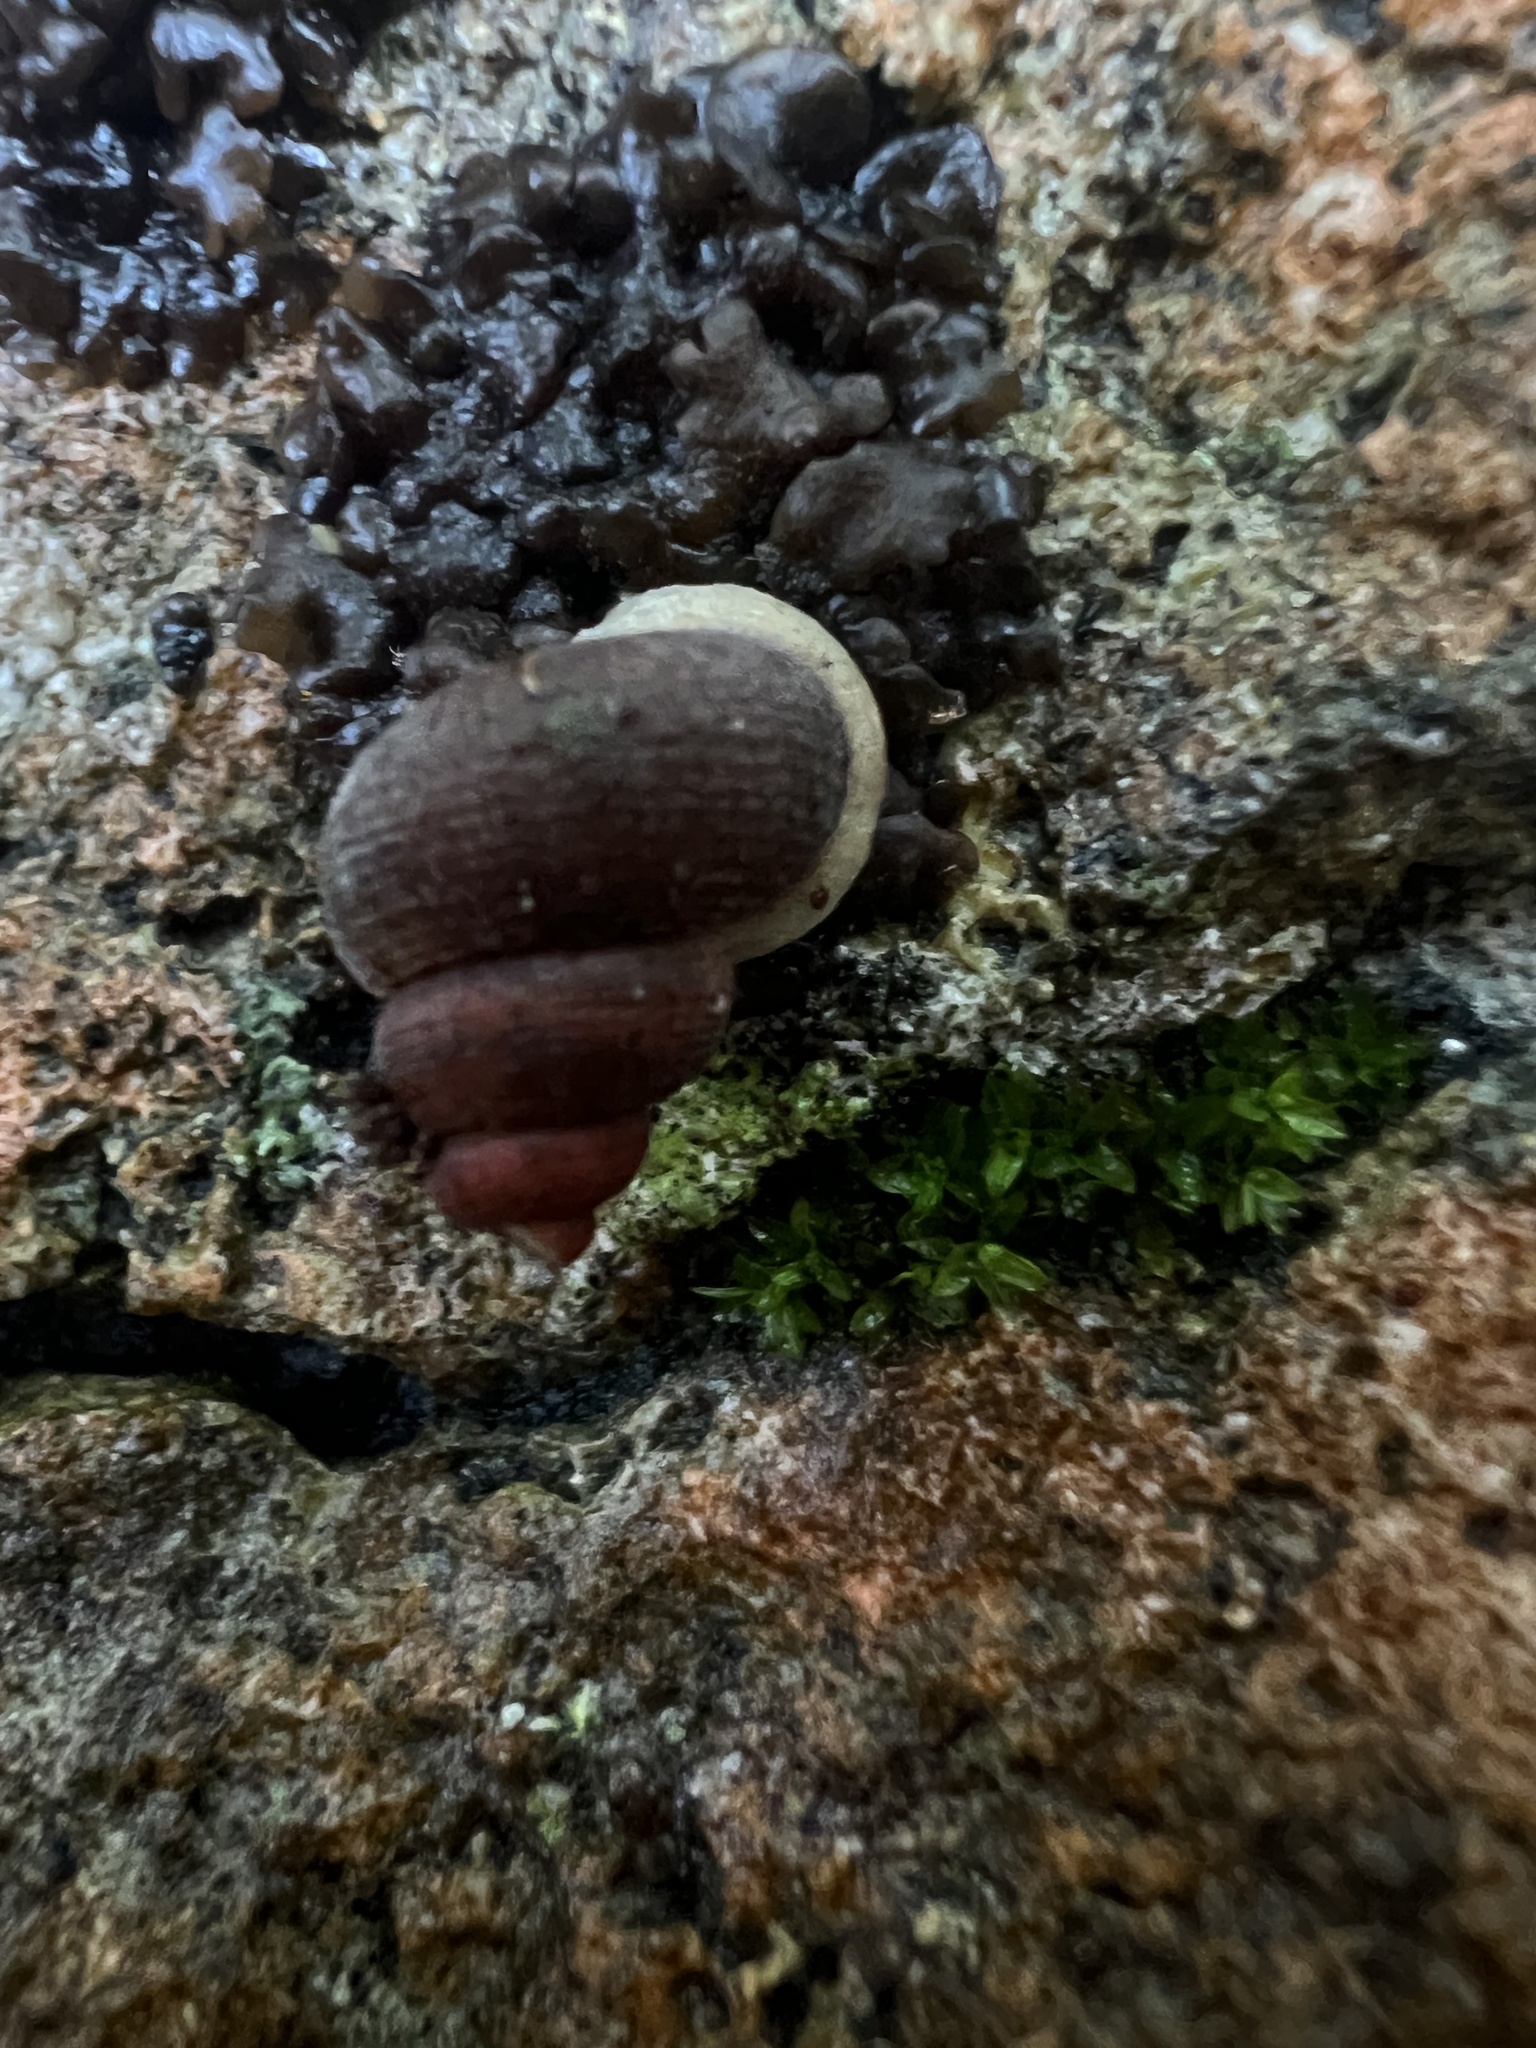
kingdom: Animalia
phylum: Mollusca
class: Gastropoda
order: Littorinimorpha
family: Annulariidae
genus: Tudorisca
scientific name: Tudorisca rosenbergiana
